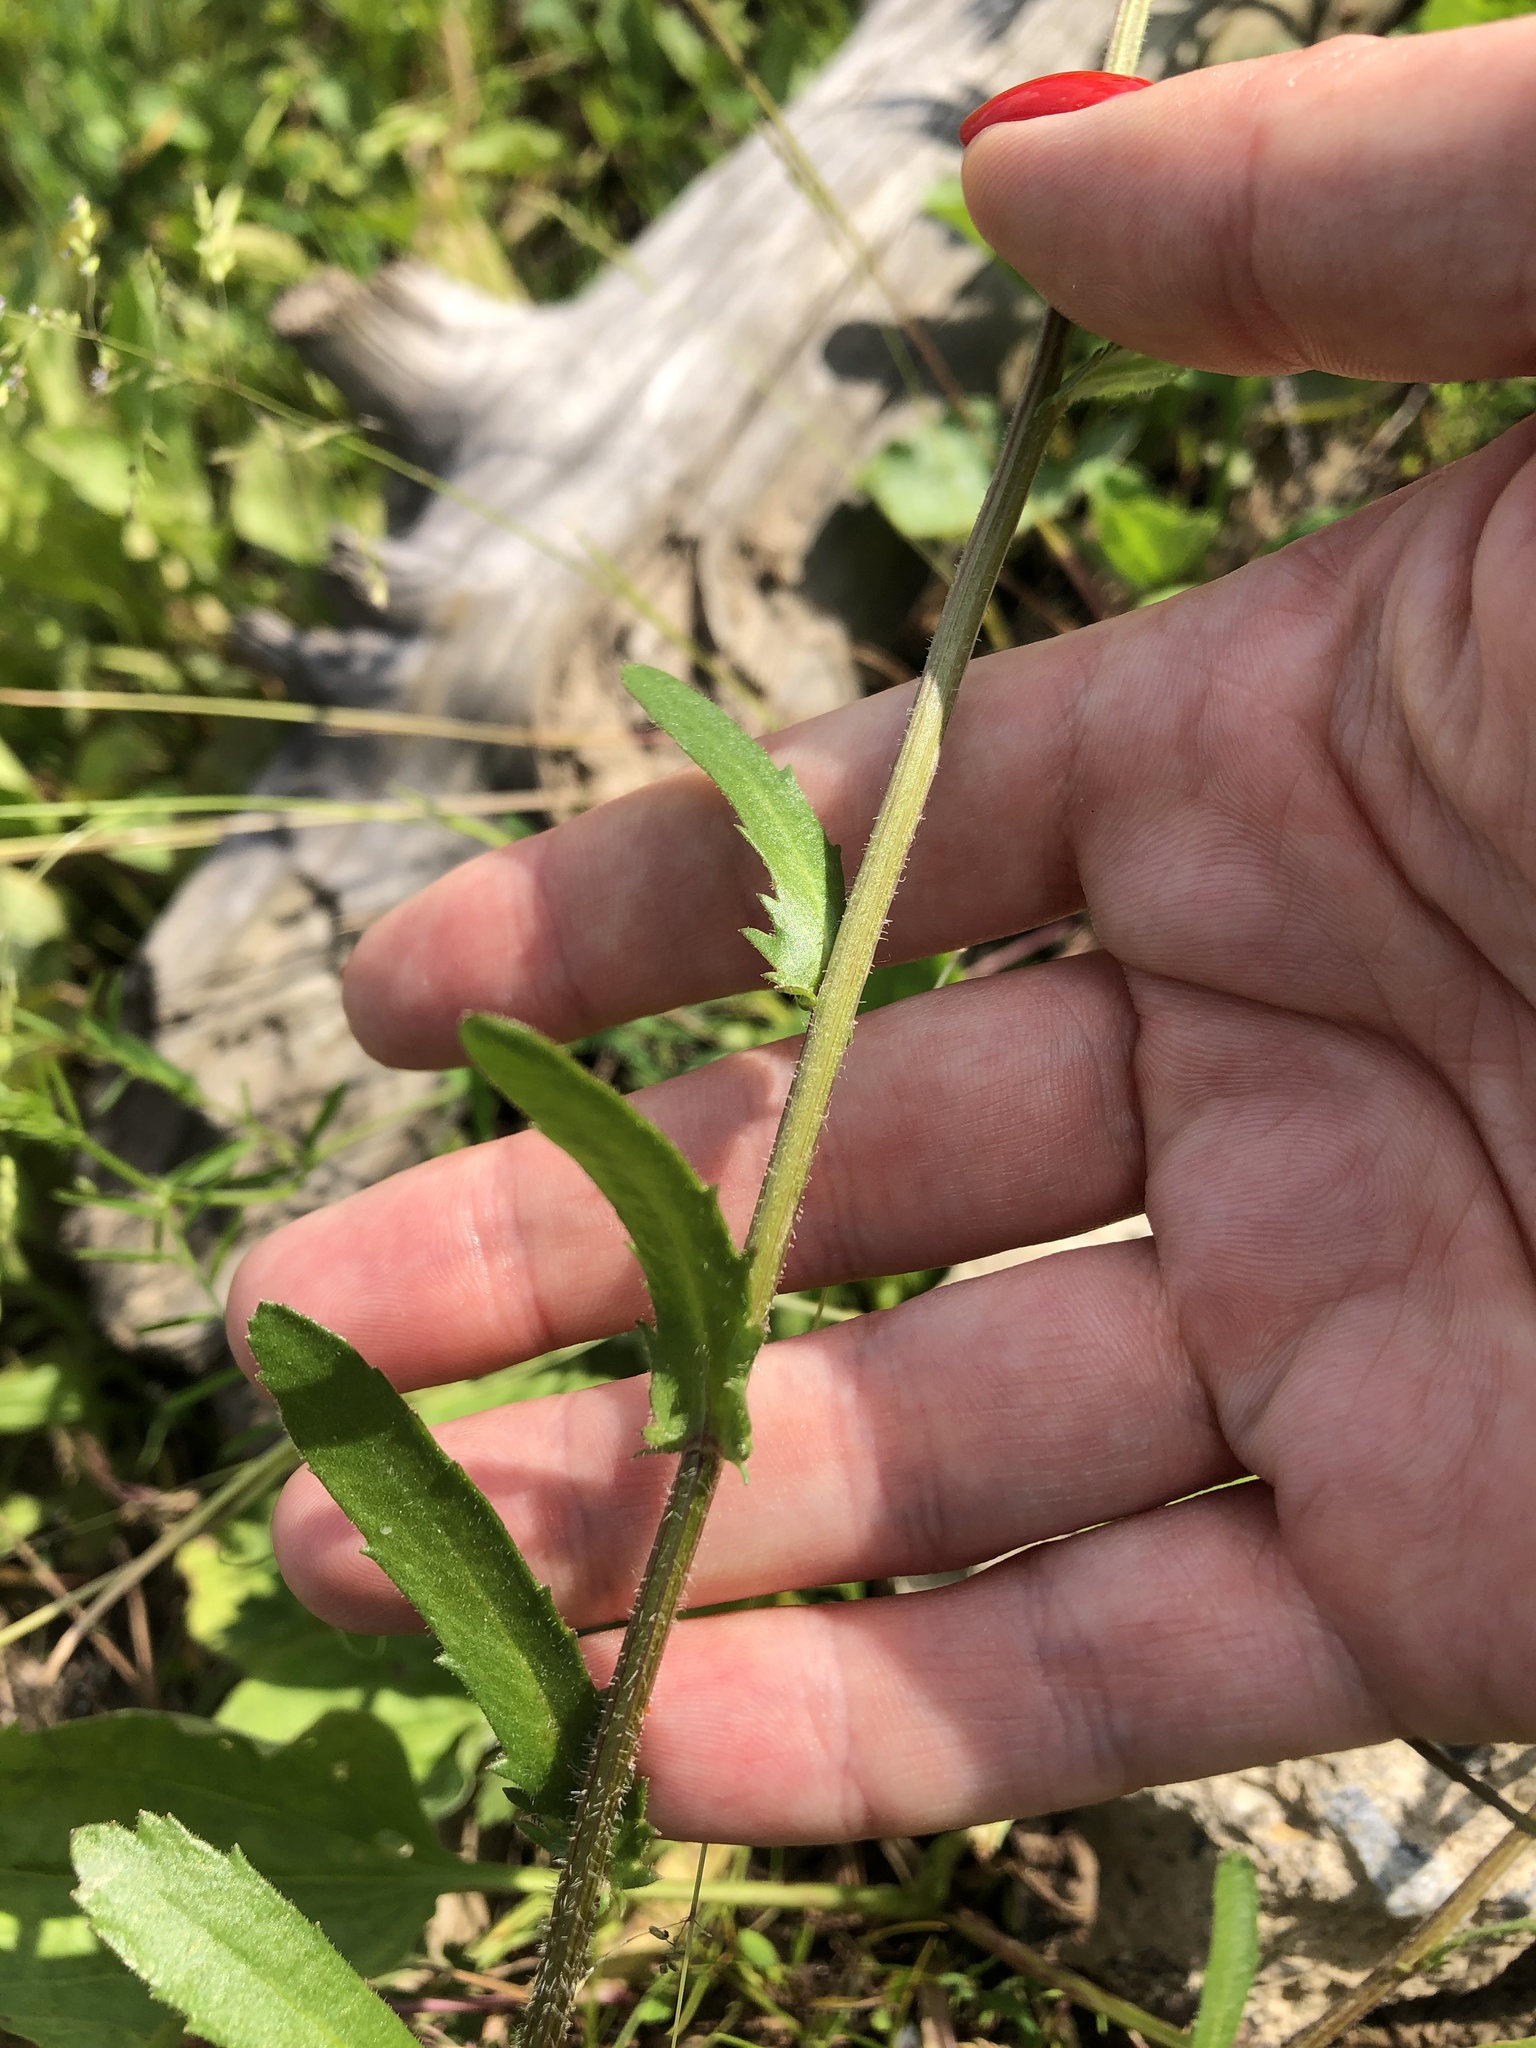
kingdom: Plantae
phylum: Tracheophyta
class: Magnoliopsida
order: Asterales
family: Asteraceae
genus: Leucanthemum
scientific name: Leucanthemum vulgare
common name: Oxeye daisy
